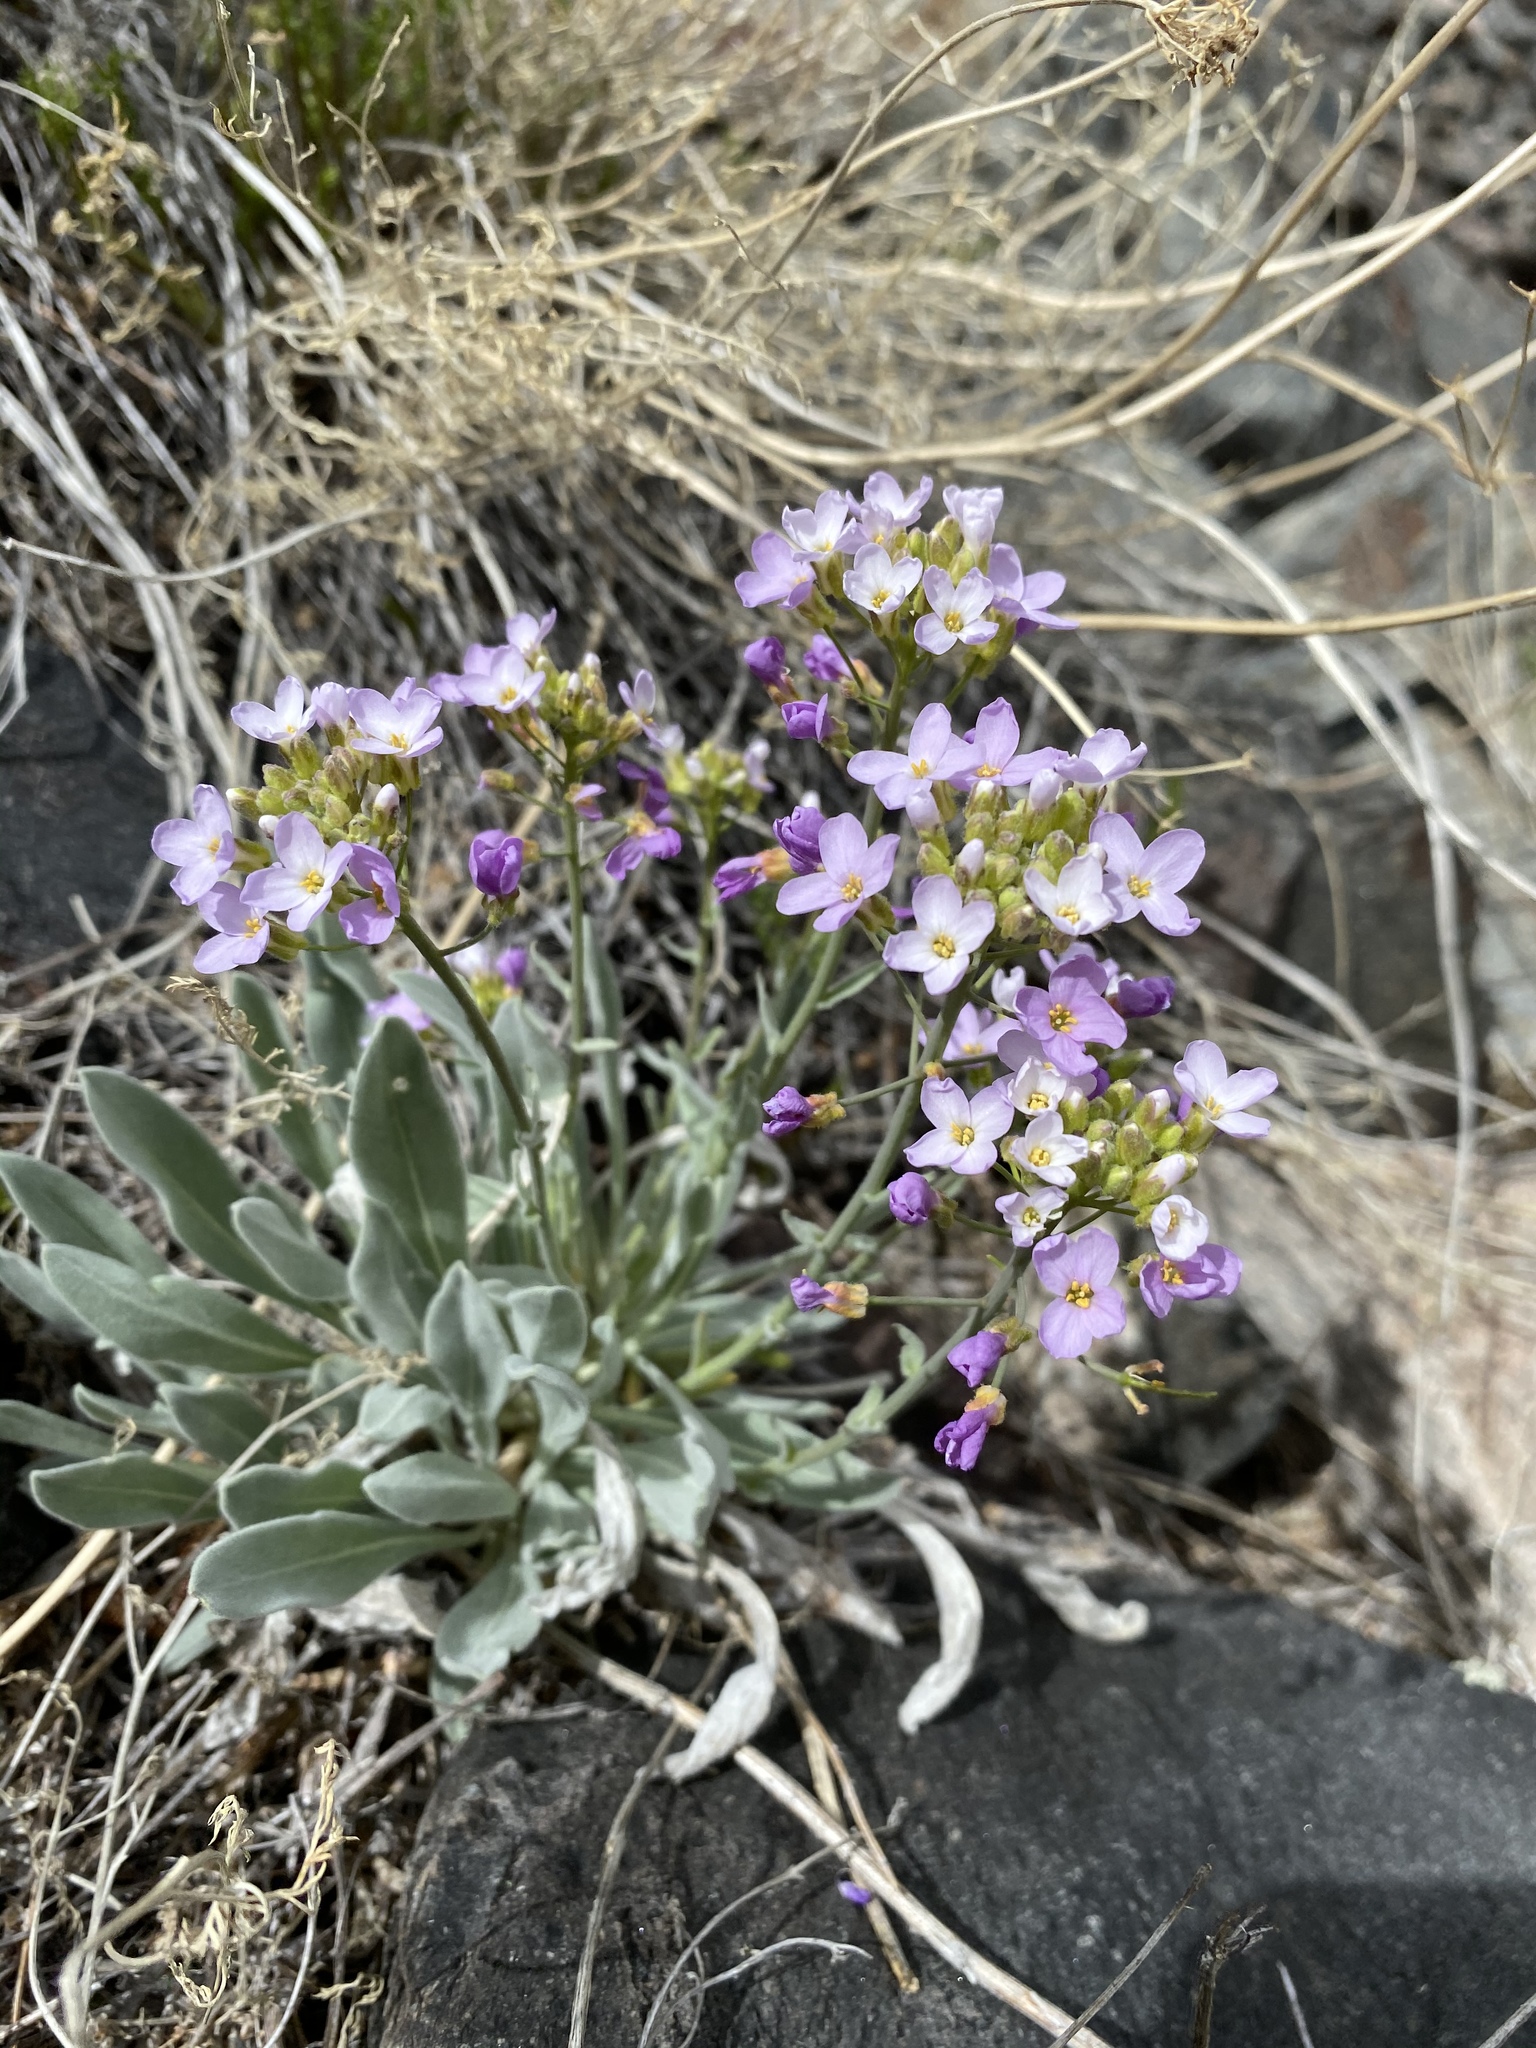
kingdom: Plantae
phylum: Tracheophyta
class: Magnoliopsida
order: Brassicales
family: Brassicaceae
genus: Phoenicaulis
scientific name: Phoenicaulis cheiranthoides
